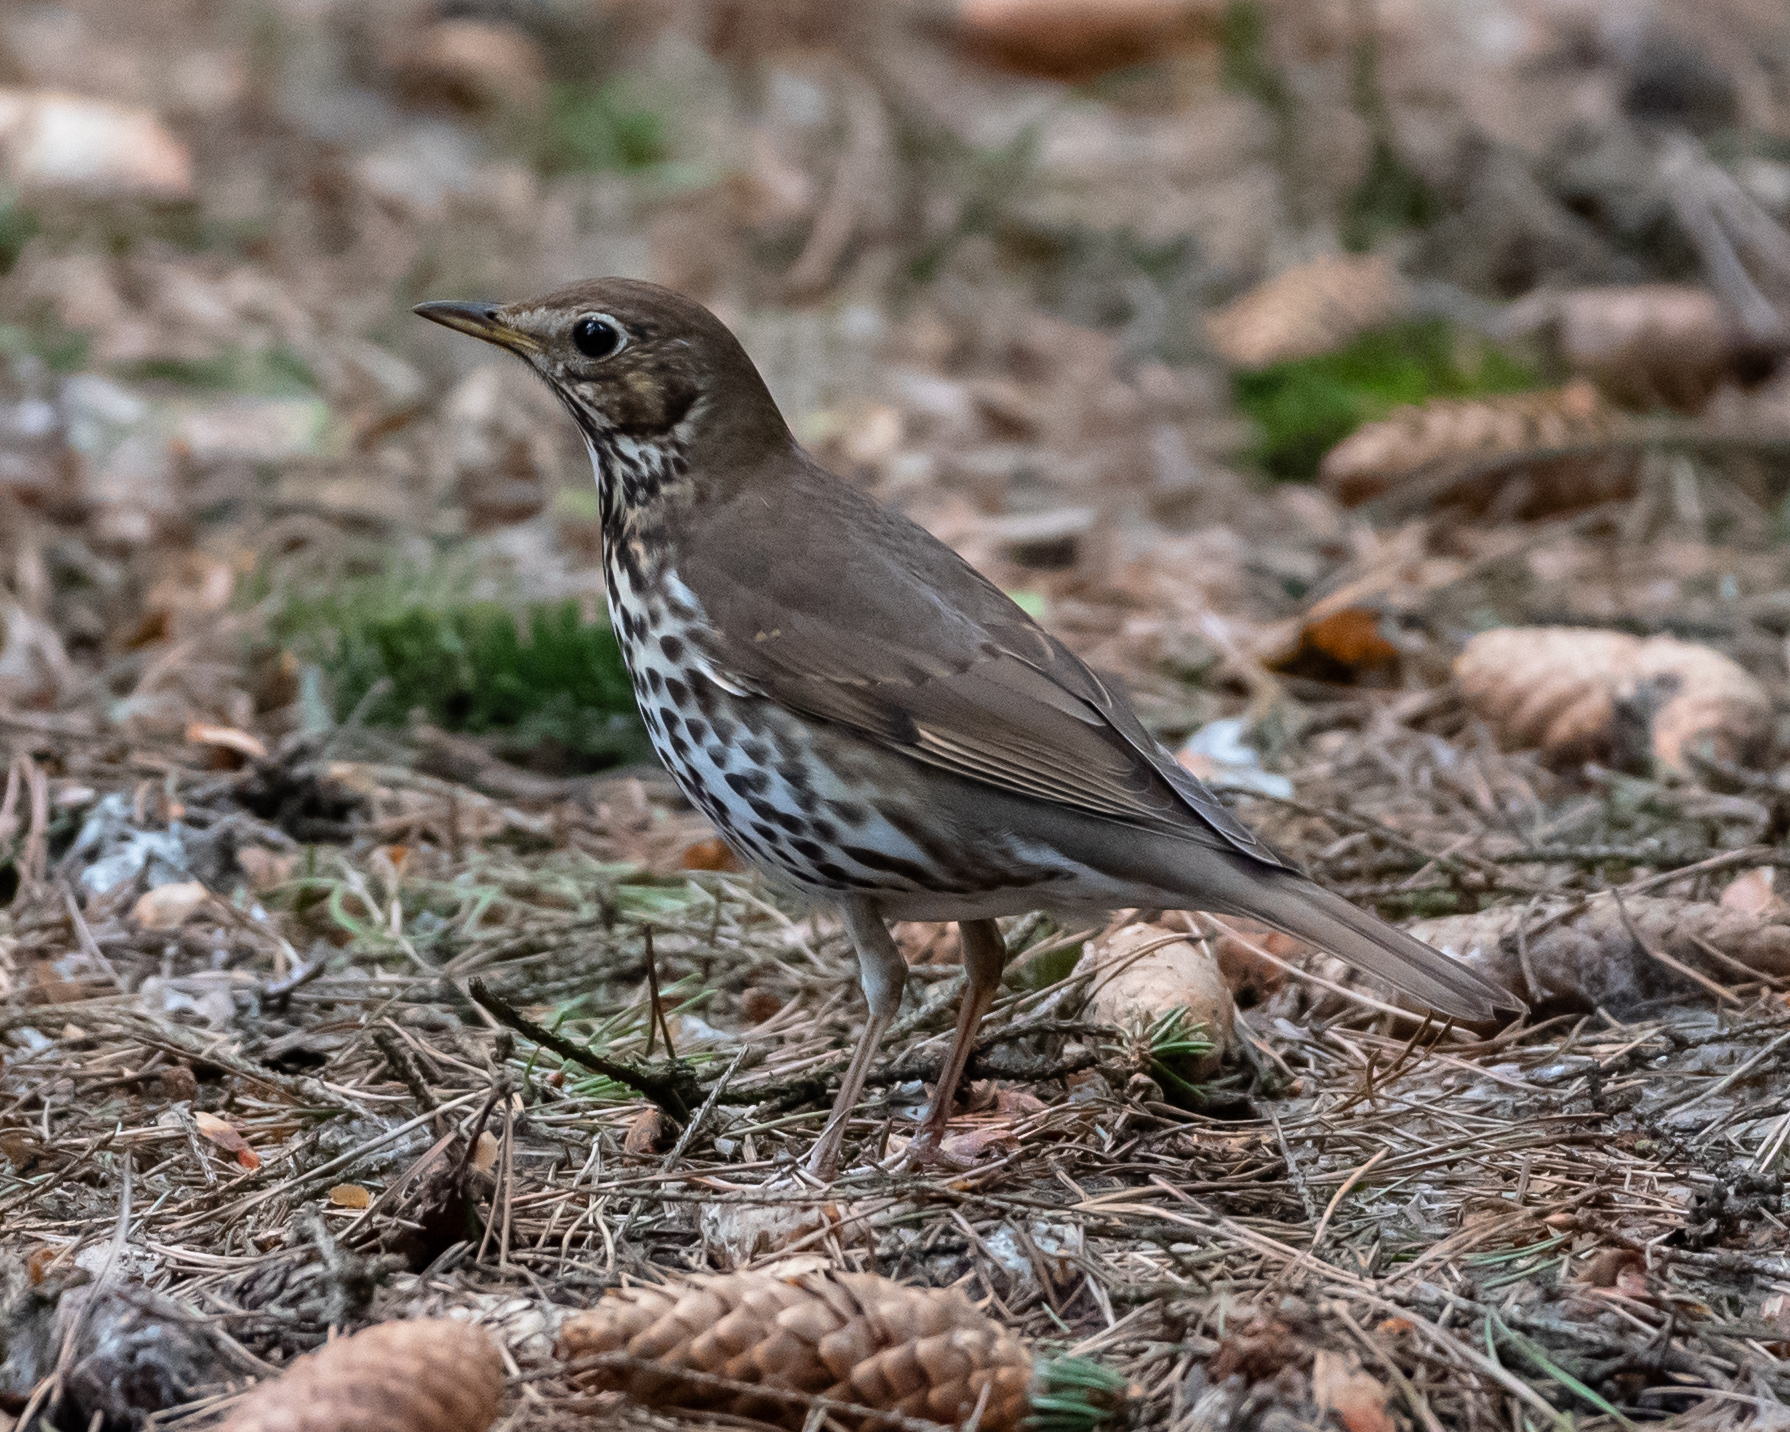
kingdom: Animalia
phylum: Chordata
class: Aves
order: Passeriformes
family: Turdidae
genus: Turdus
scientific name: Turdus philomelos
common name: Song thrush
